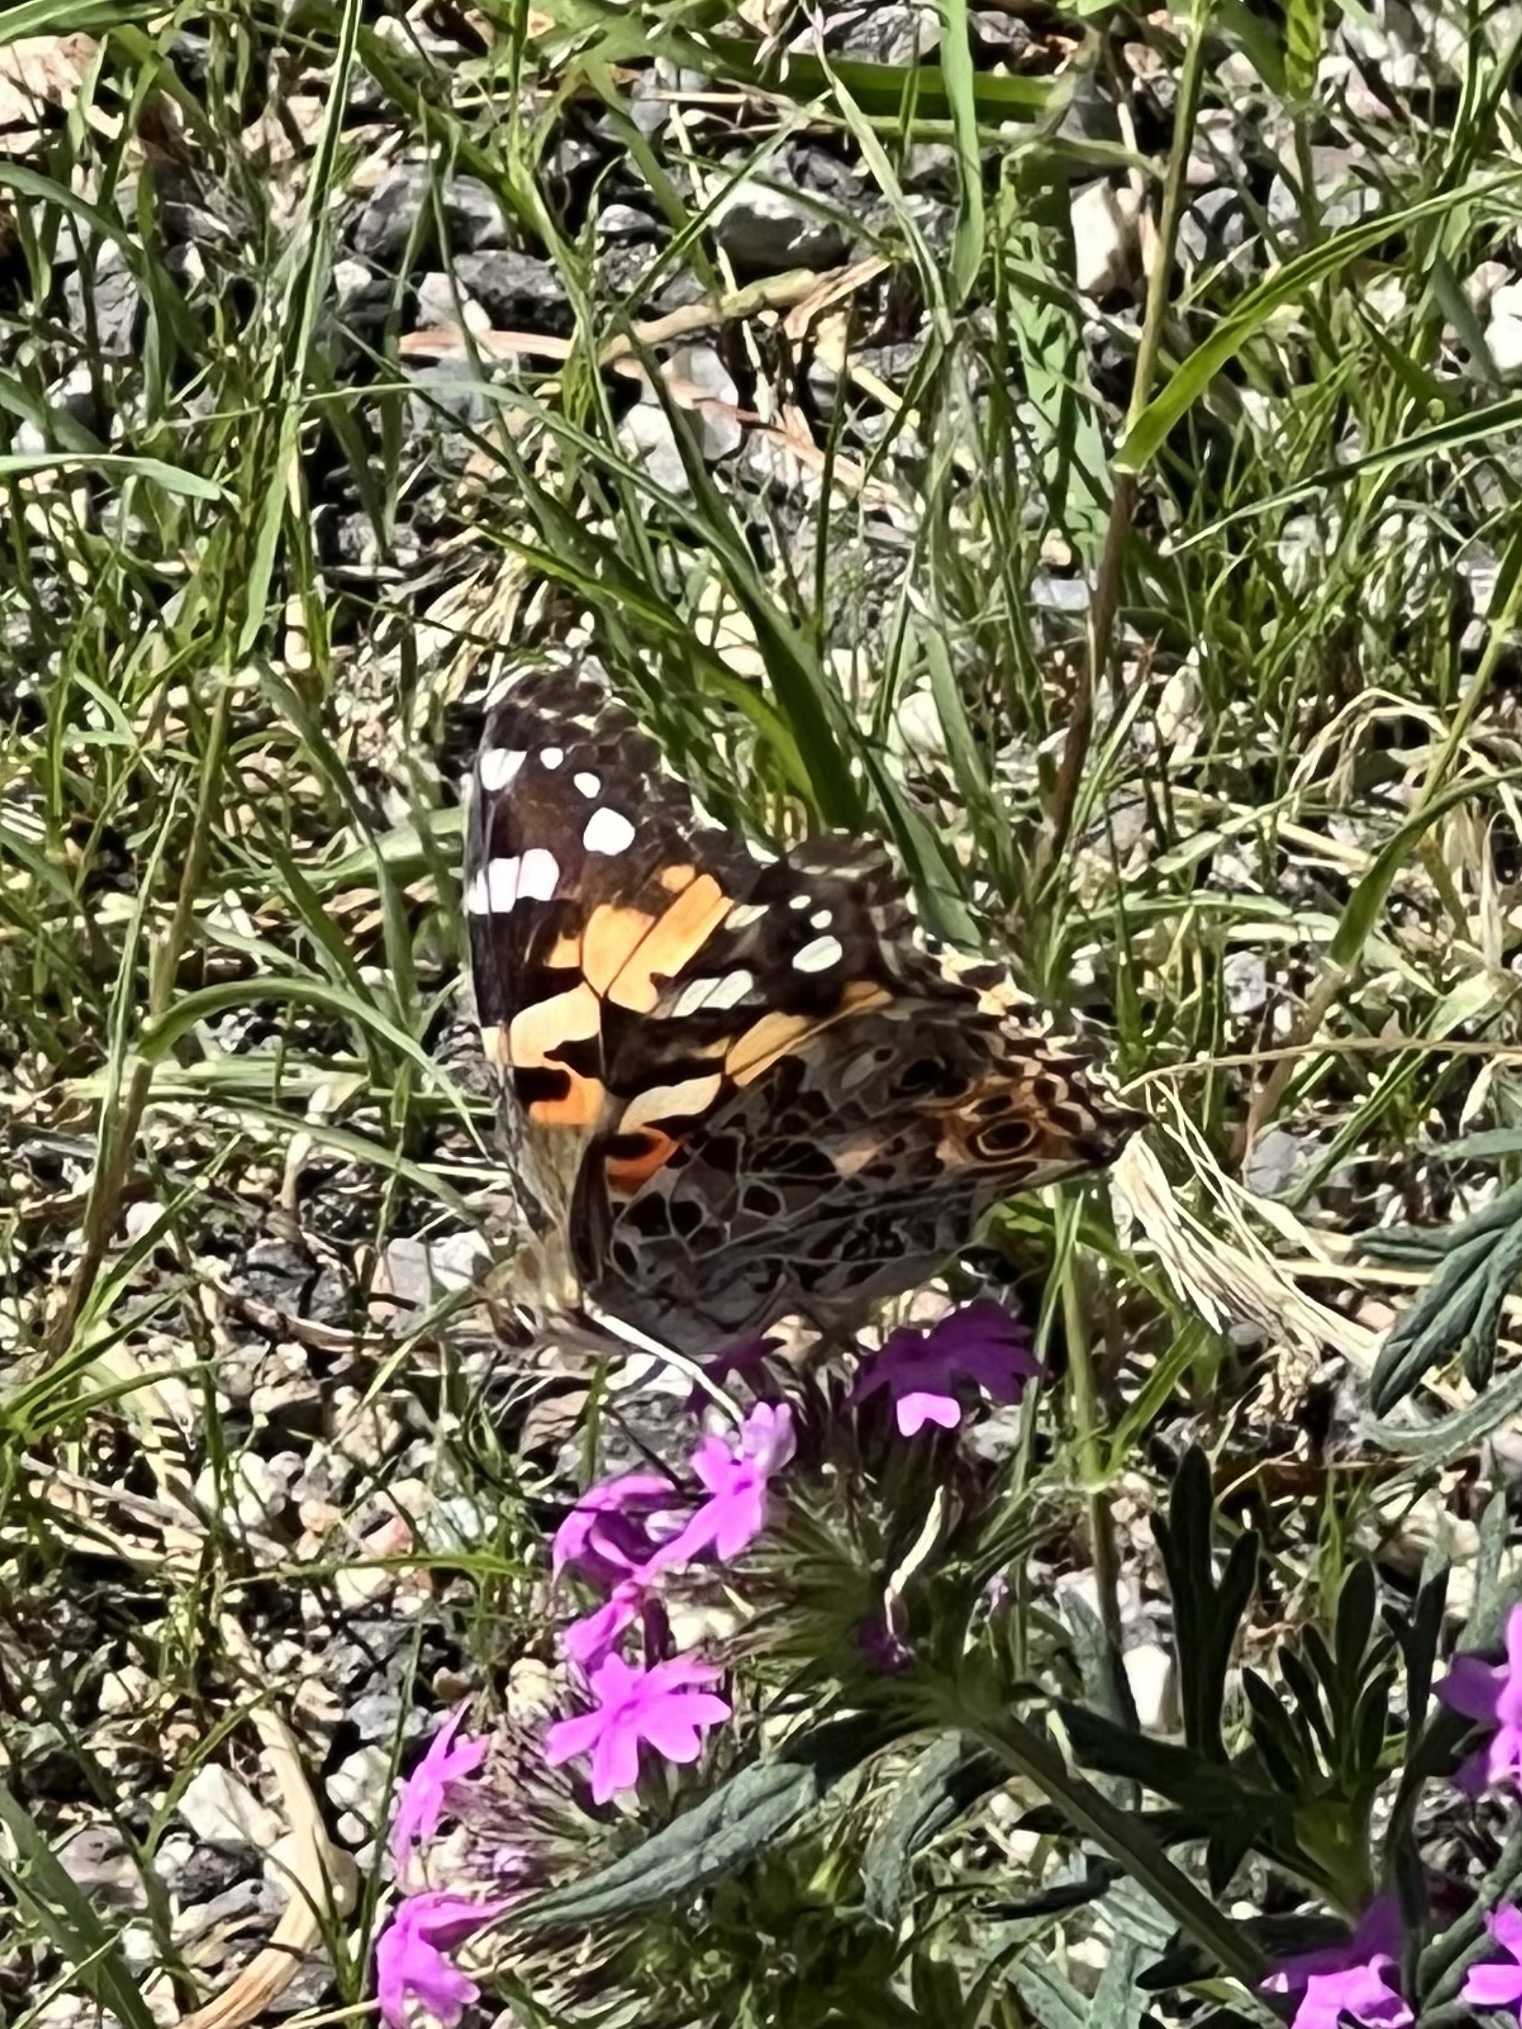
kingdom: Animalia
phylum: Arthropoda
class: Insecta
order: Lepidoptera
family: Nymphalidae
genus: Vanessa
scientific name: Vanessa cardui
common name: Painted lady
